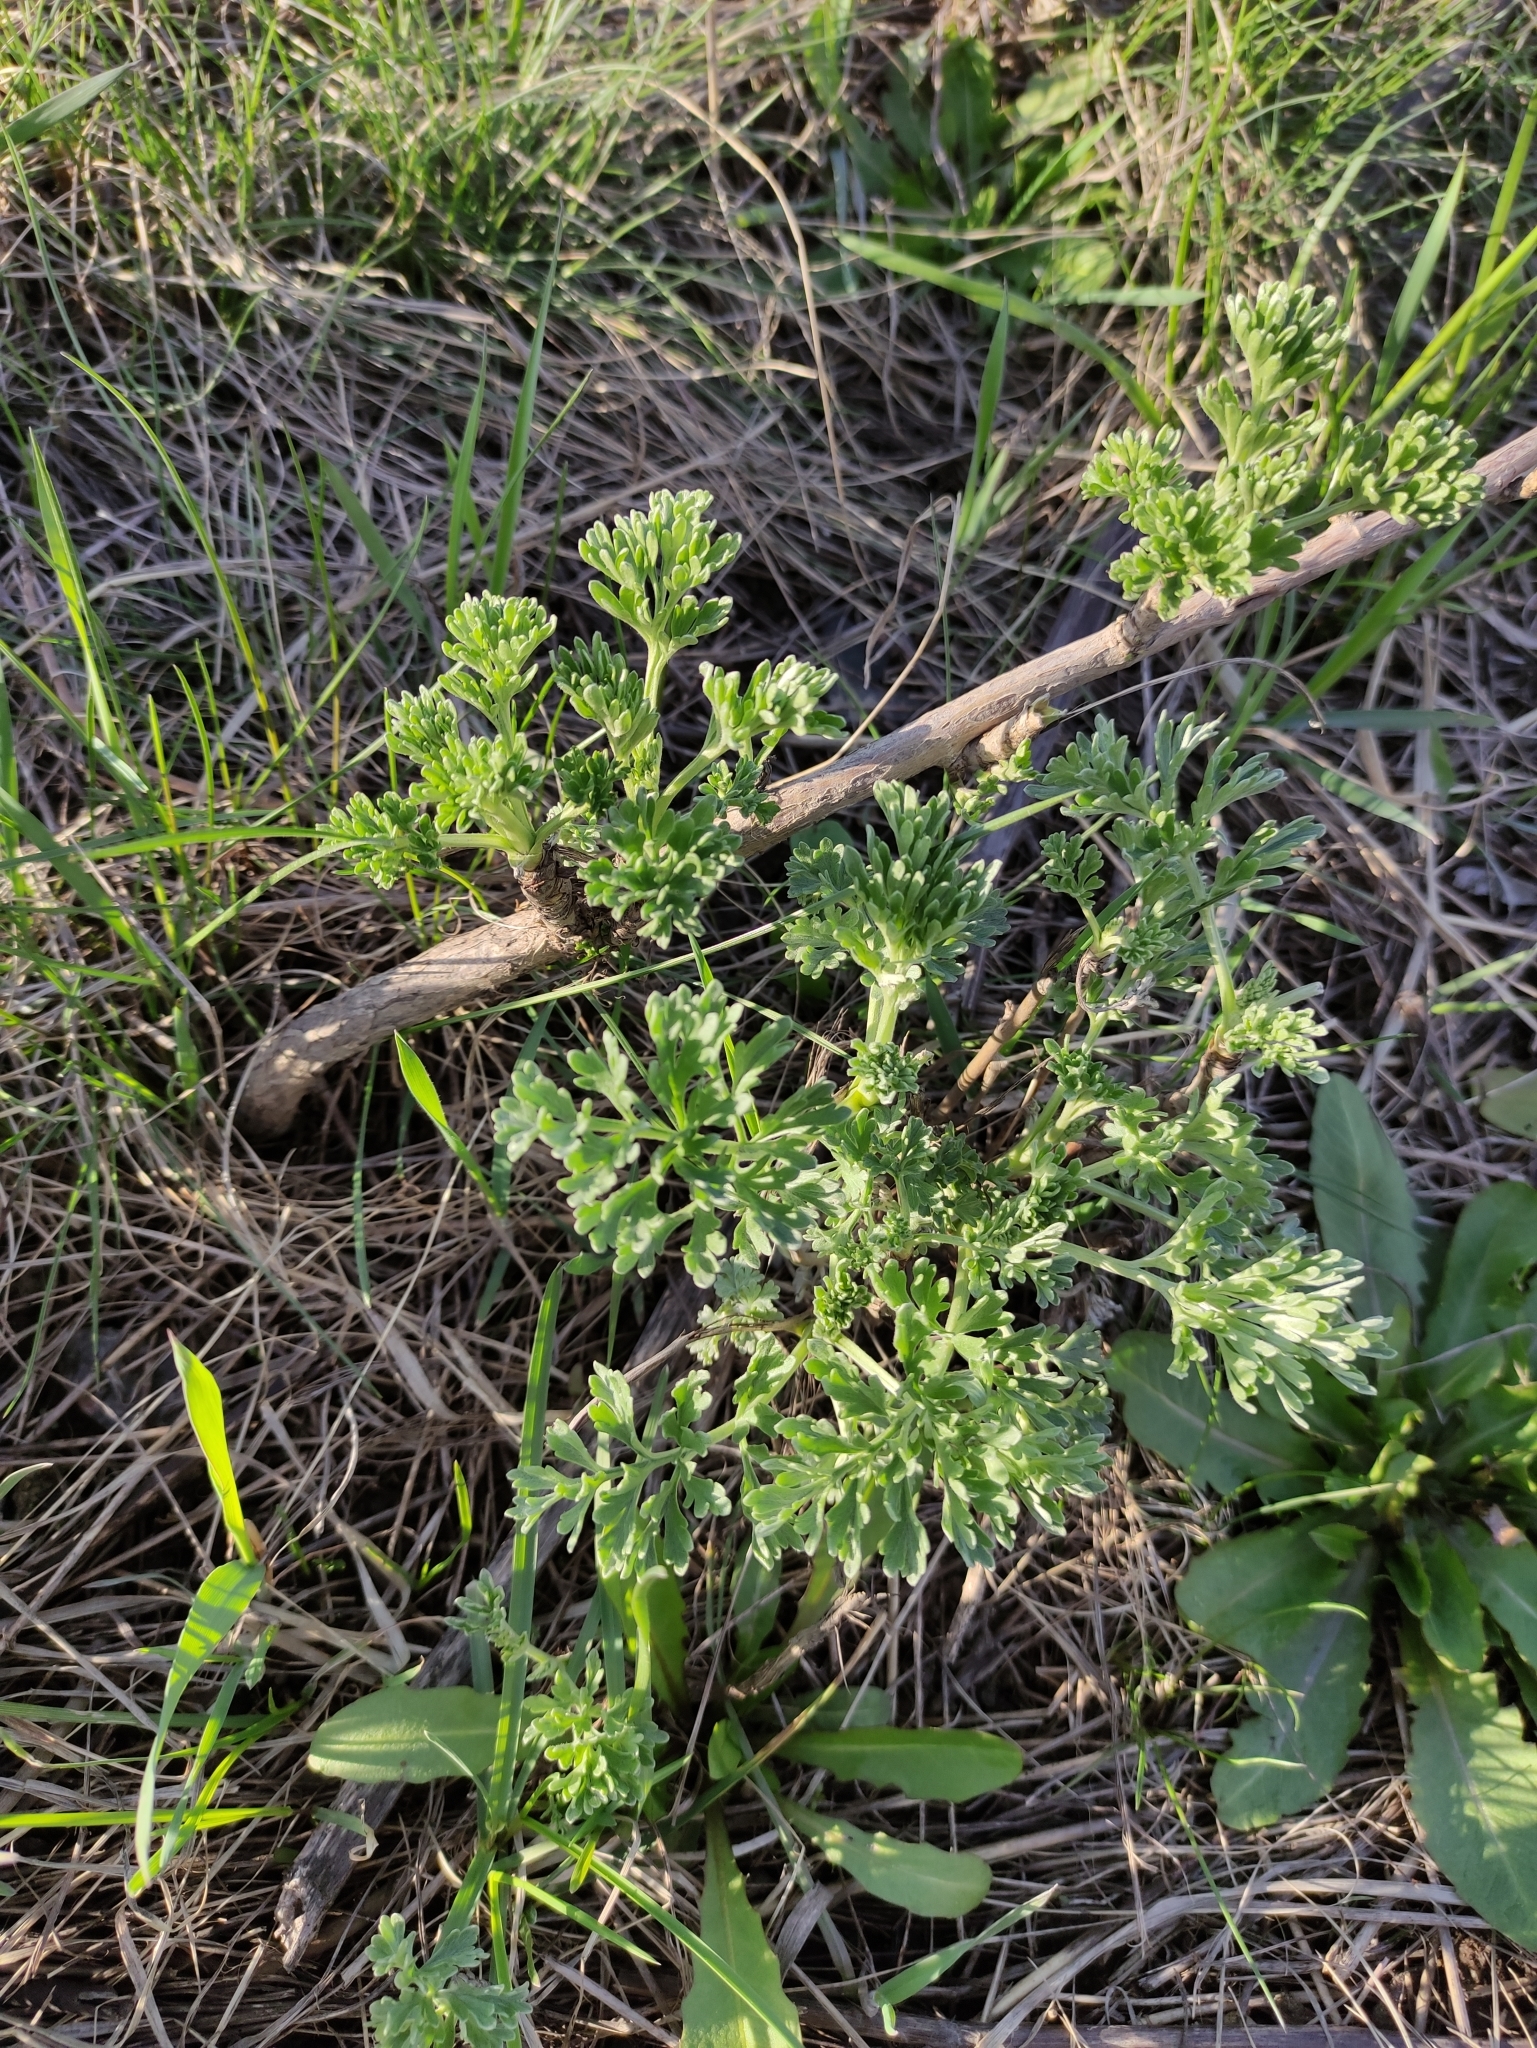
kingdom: Plantae
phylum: Tracheophyta
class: Magnoliopsida
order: Asterales
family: Asteraceae
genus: Artemisia
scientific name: Artemisia absinthium
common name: Wormwood
